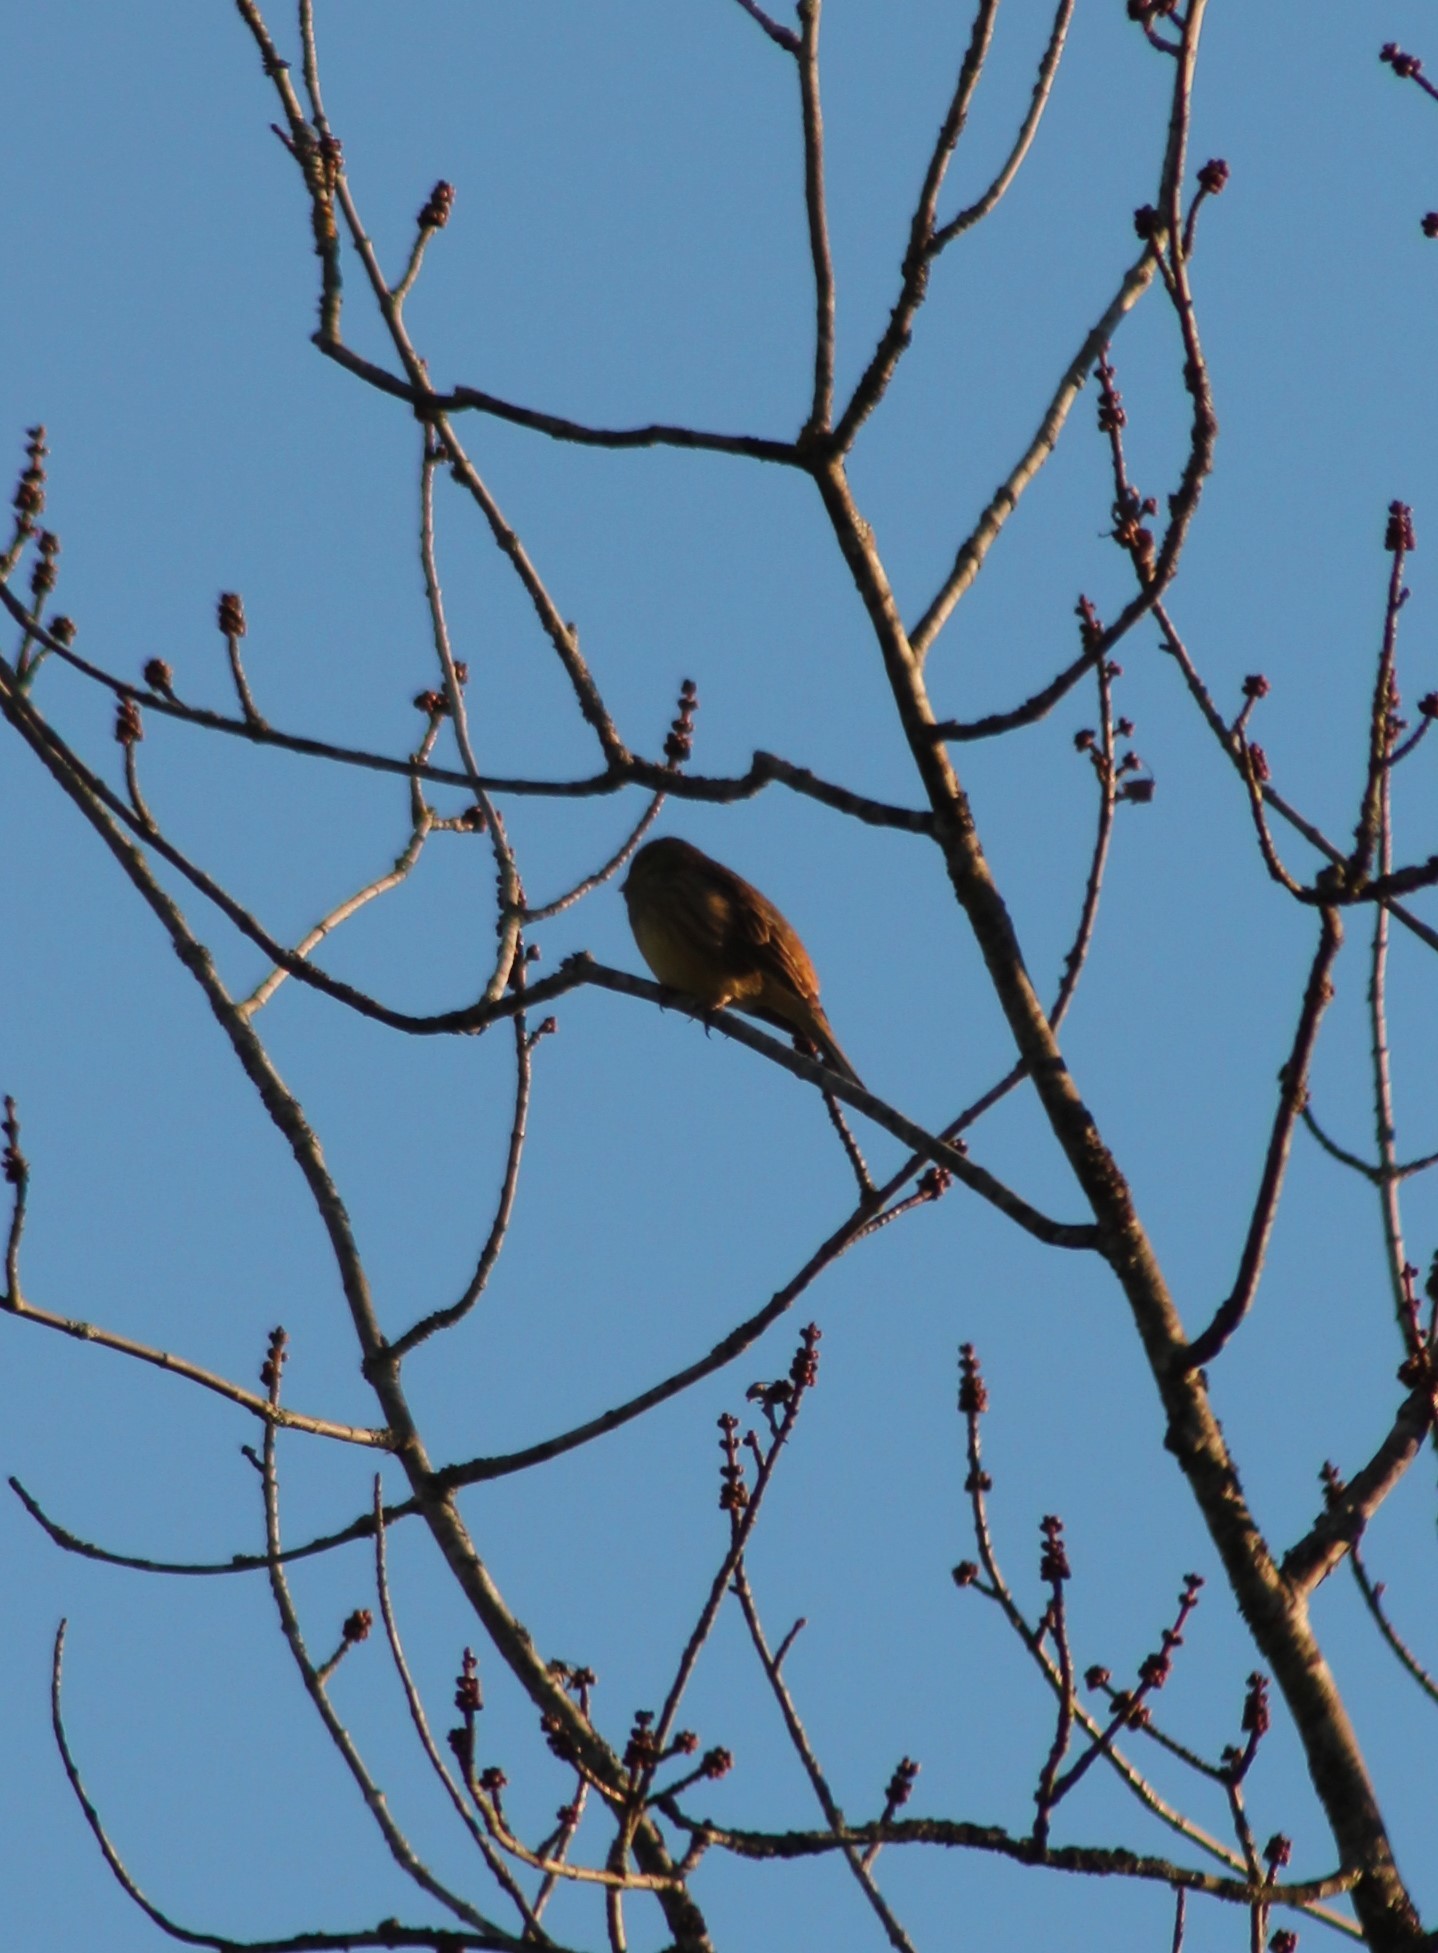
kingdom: Animalia
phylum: Chordata
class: Aves
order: Passeriformes
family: Emberizidae
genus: Emberiza
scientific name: Emberiza citrinella
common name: Yellowhammer
